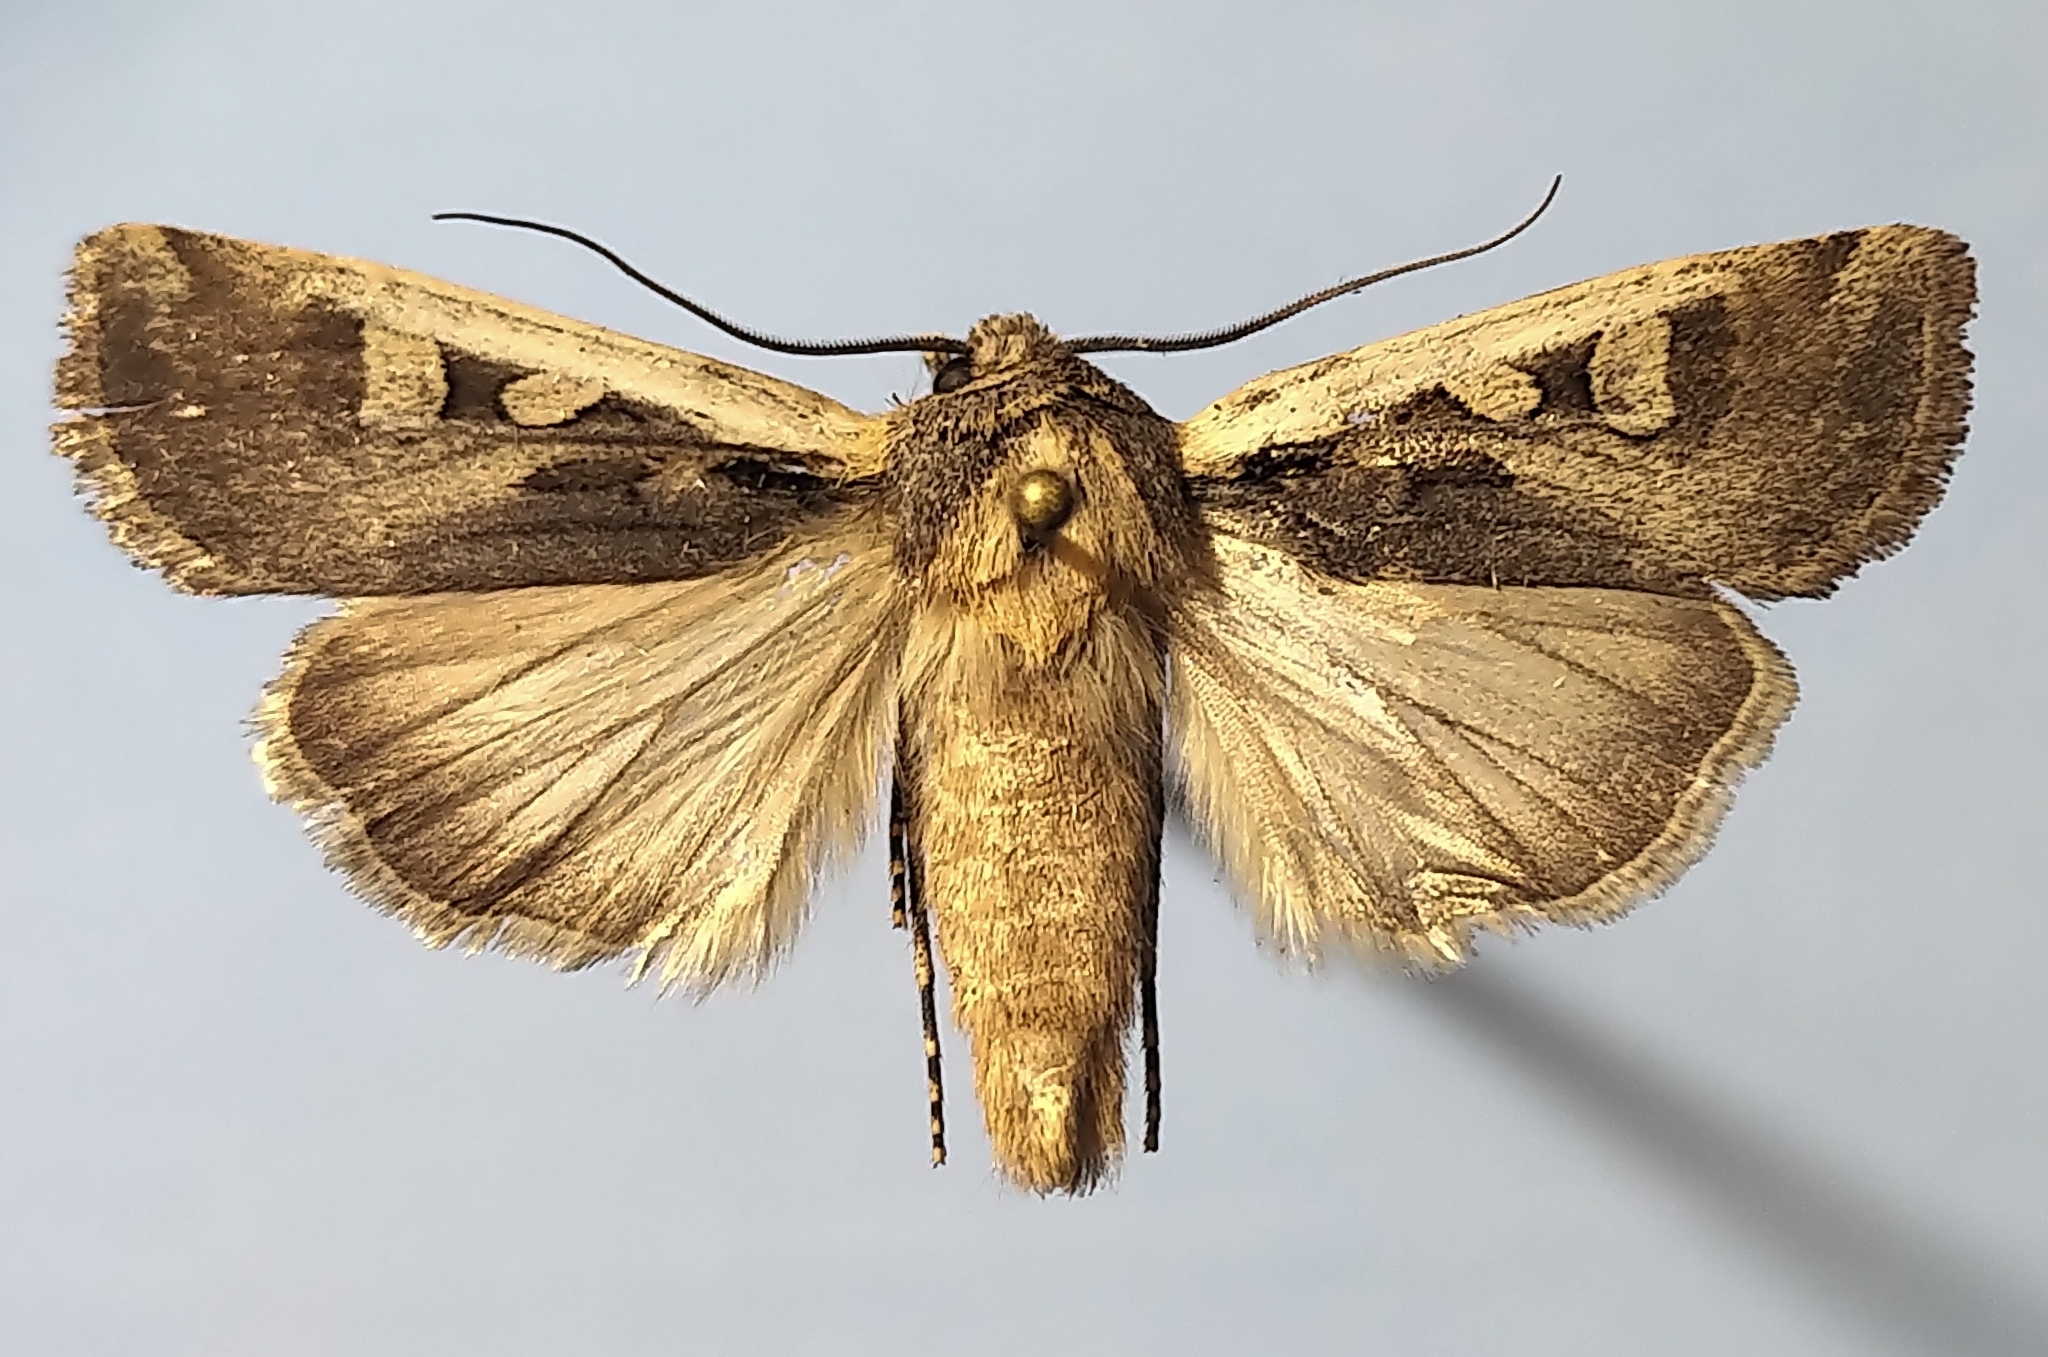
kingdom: Animalia
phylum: Arthropoda
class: Insecta
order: Lepidoptera
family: Noctuidae
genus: Euxoa
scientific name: Euxoa obeliscoides
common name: Obelisk dart moth
